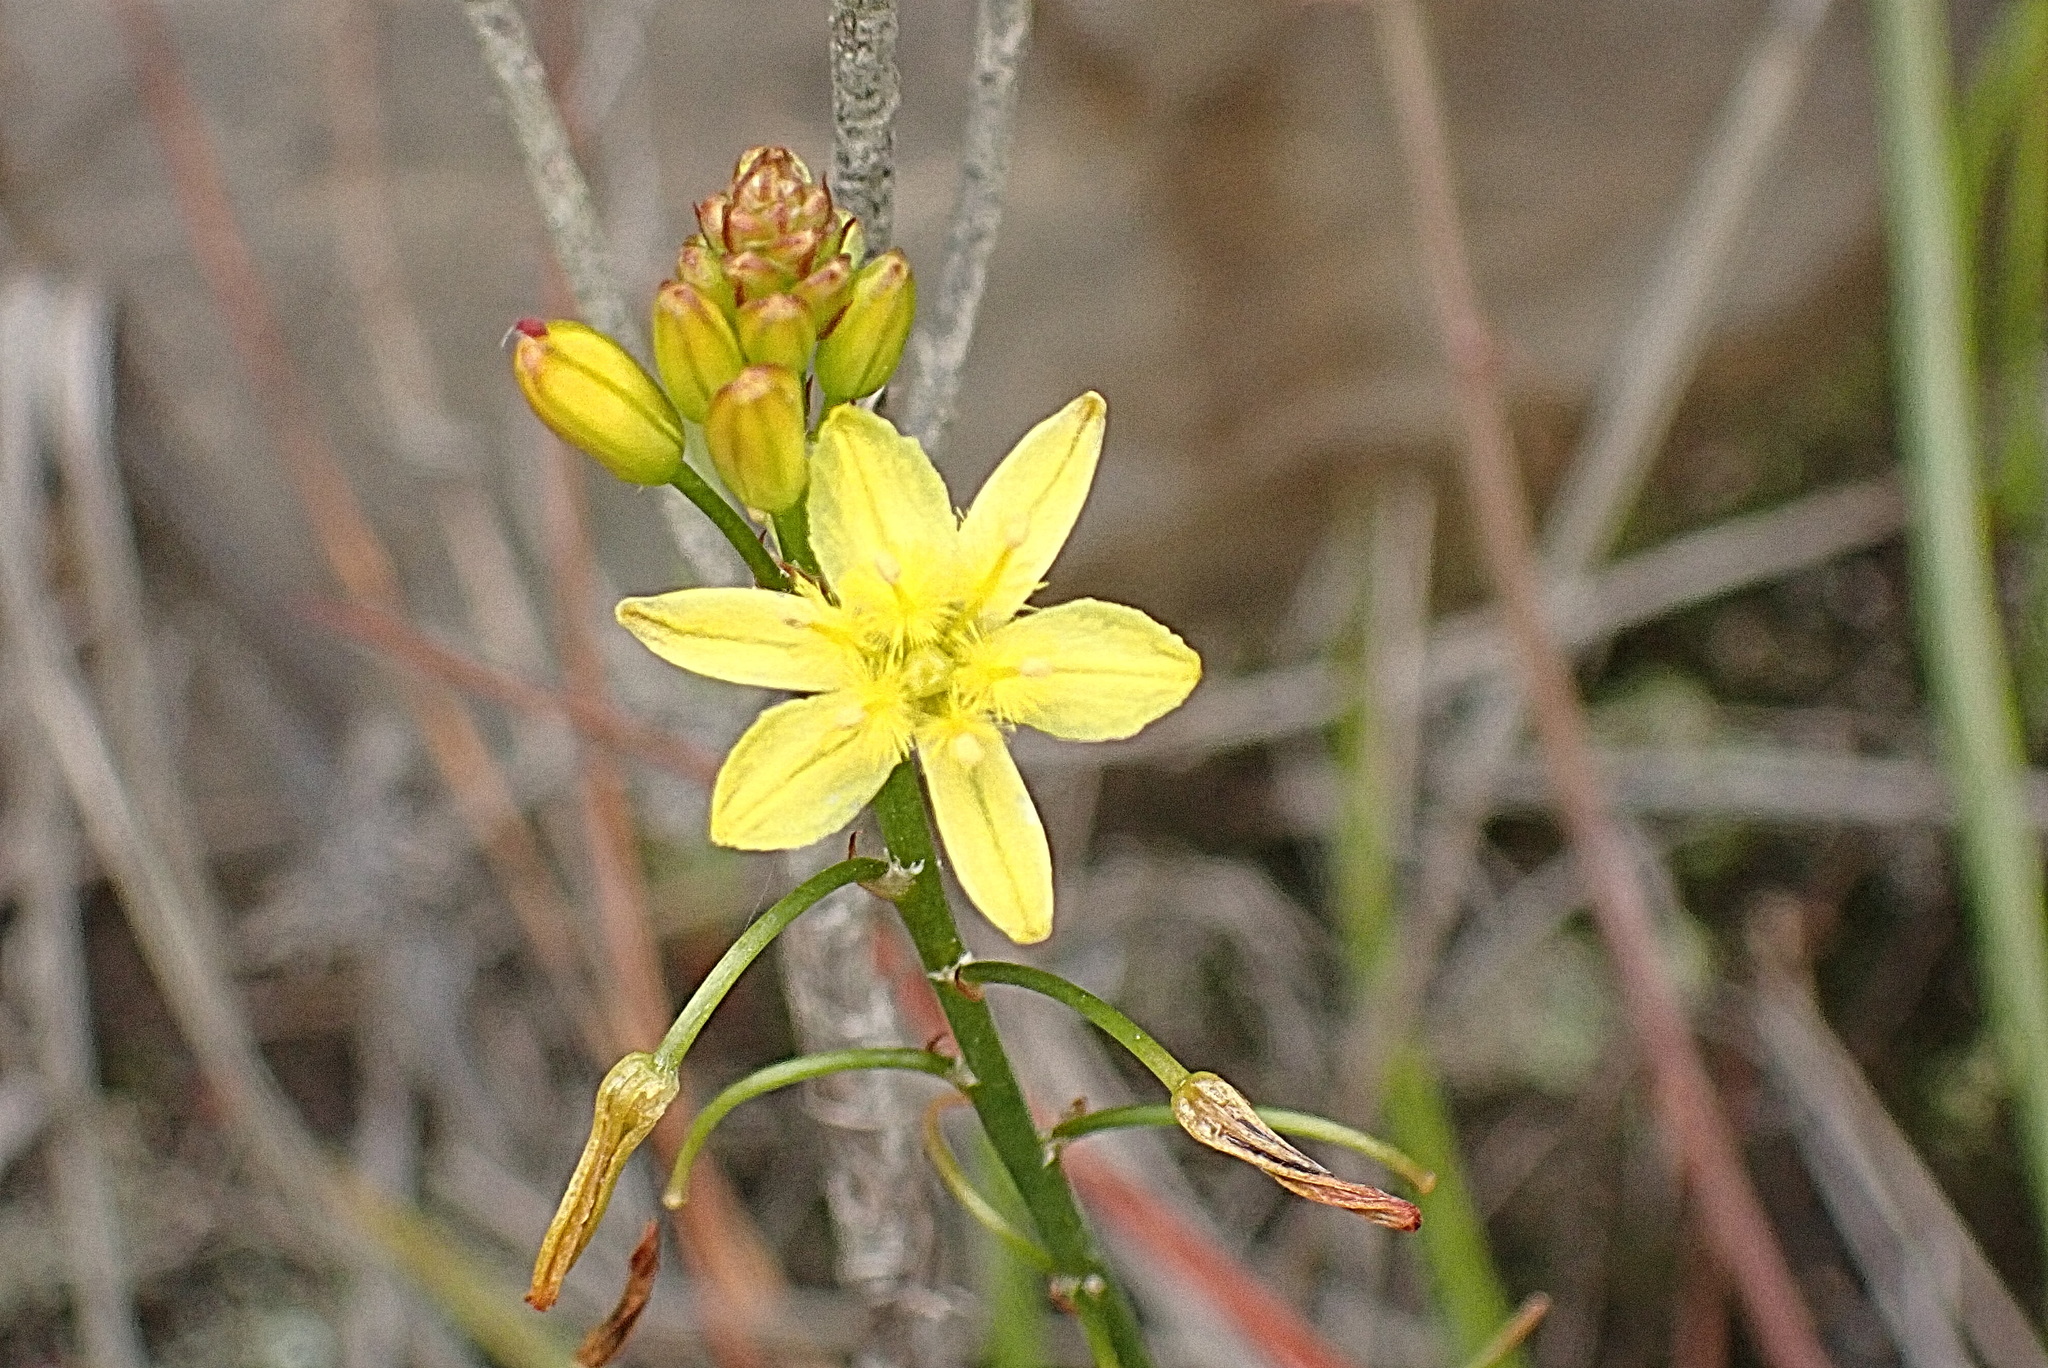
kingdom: Plantae
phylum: Tracheophyta
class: Liliopsida
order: Asparagales
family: Asphodelaceae
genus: Bulbine
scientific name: Bulbine audreyae
